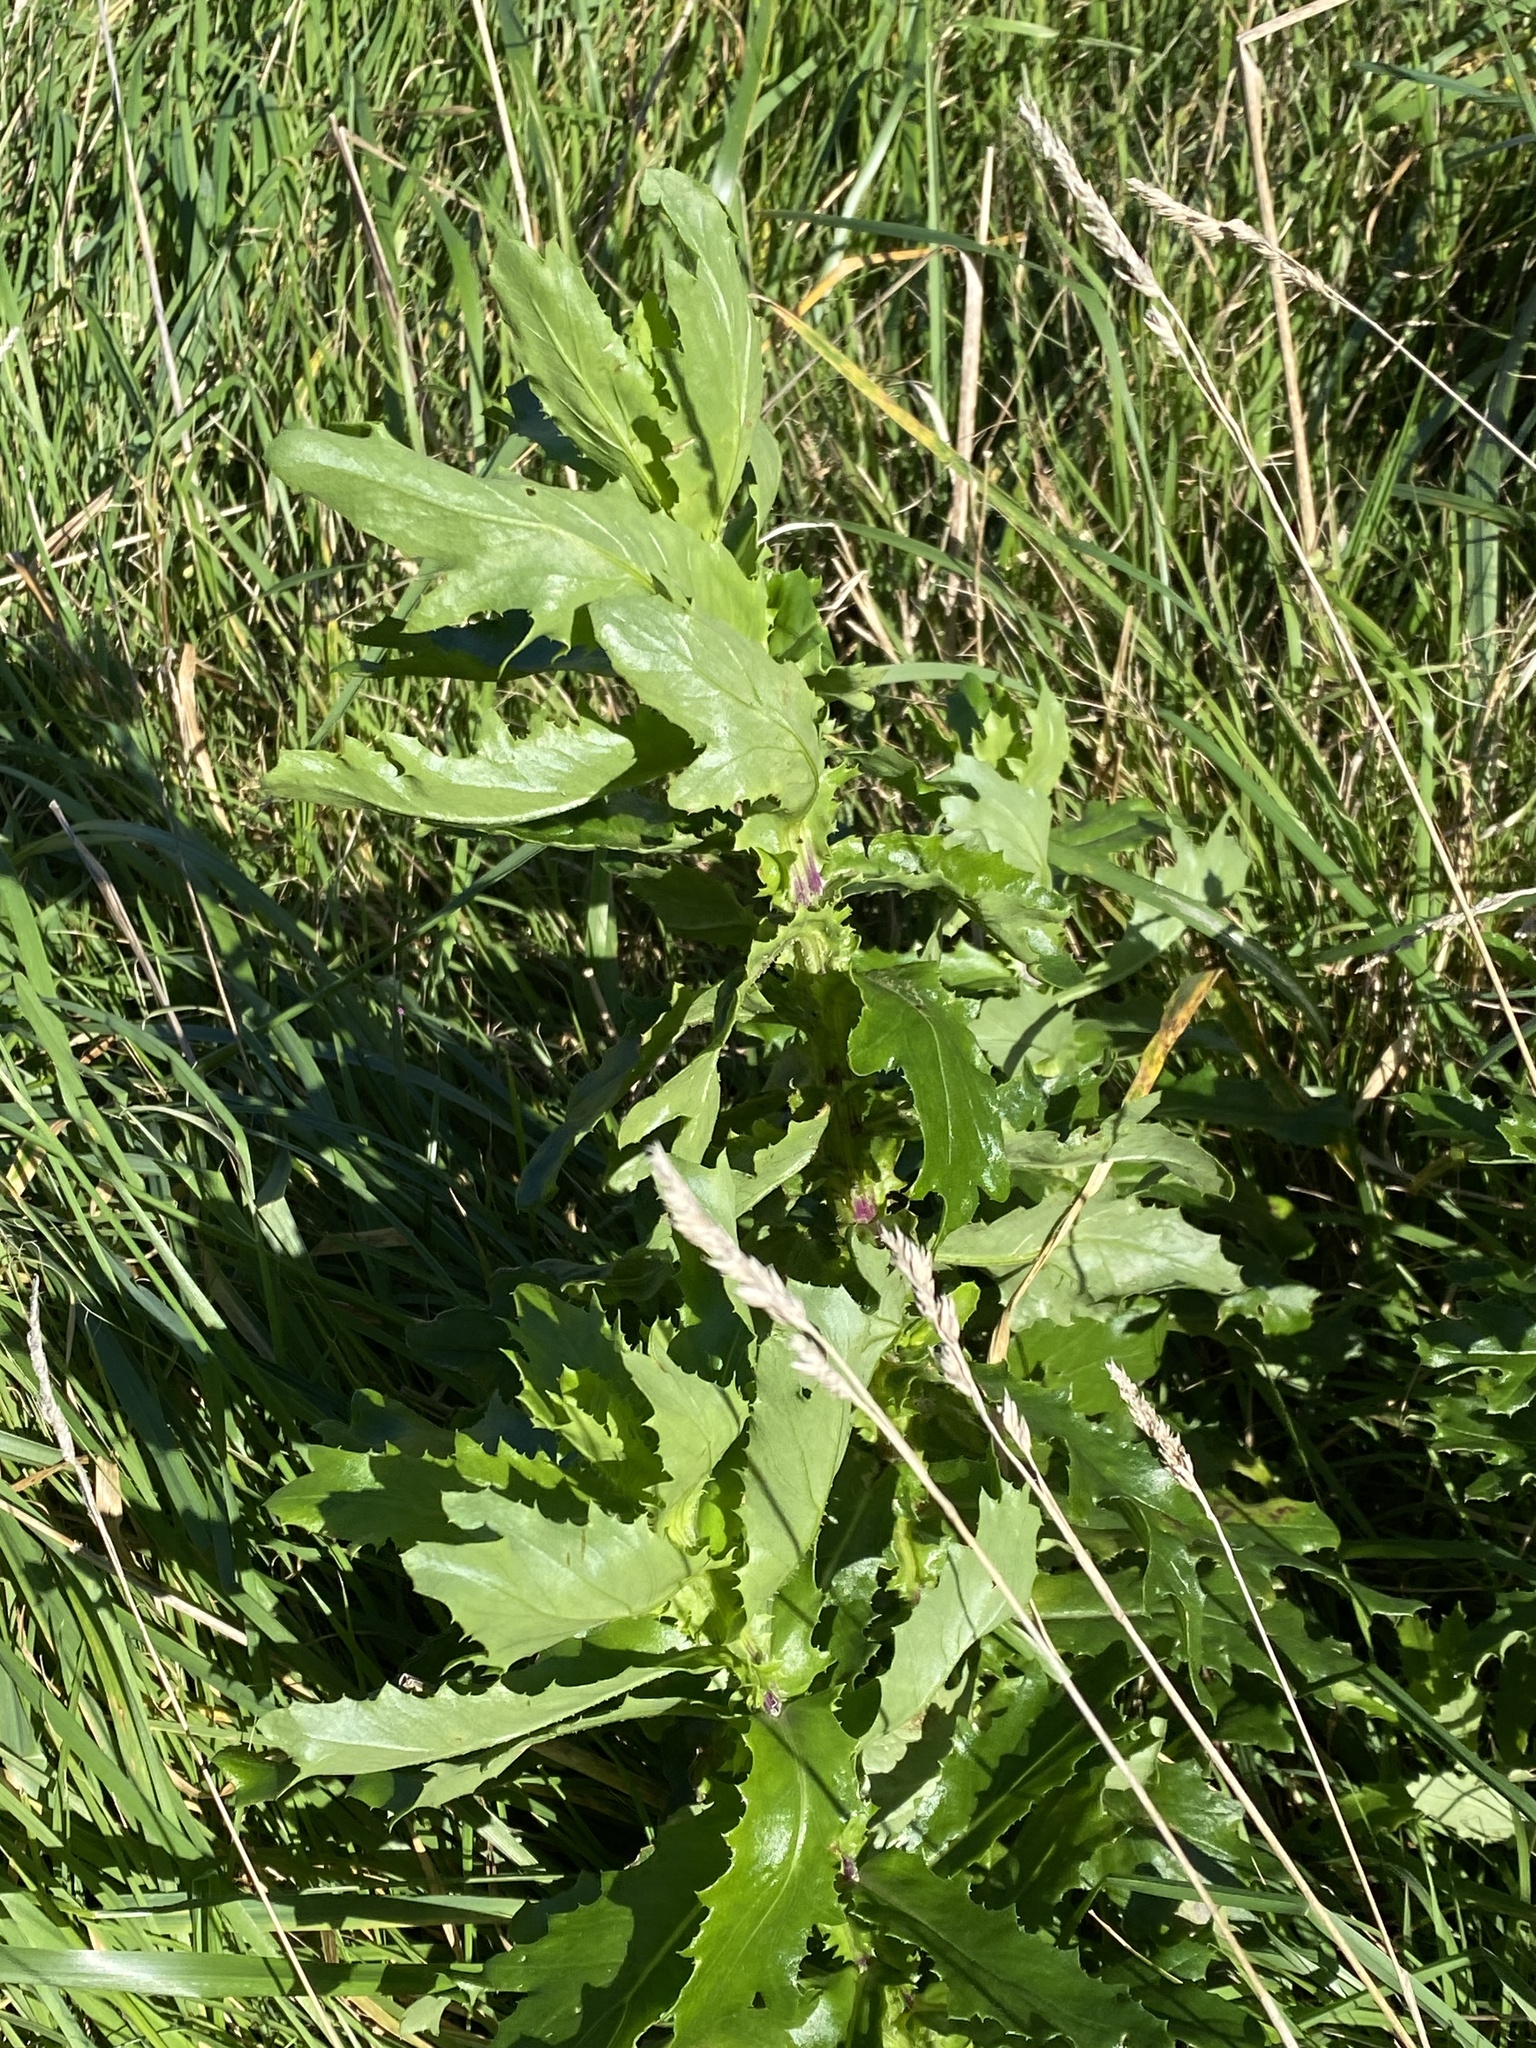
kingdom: Plantae
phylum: Tracheophyta
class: Magnoliopsida
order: Asterales
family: Asteraceae
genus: Senecio
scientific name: Senecio glastifolius
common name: Woad-leaved ragwort
